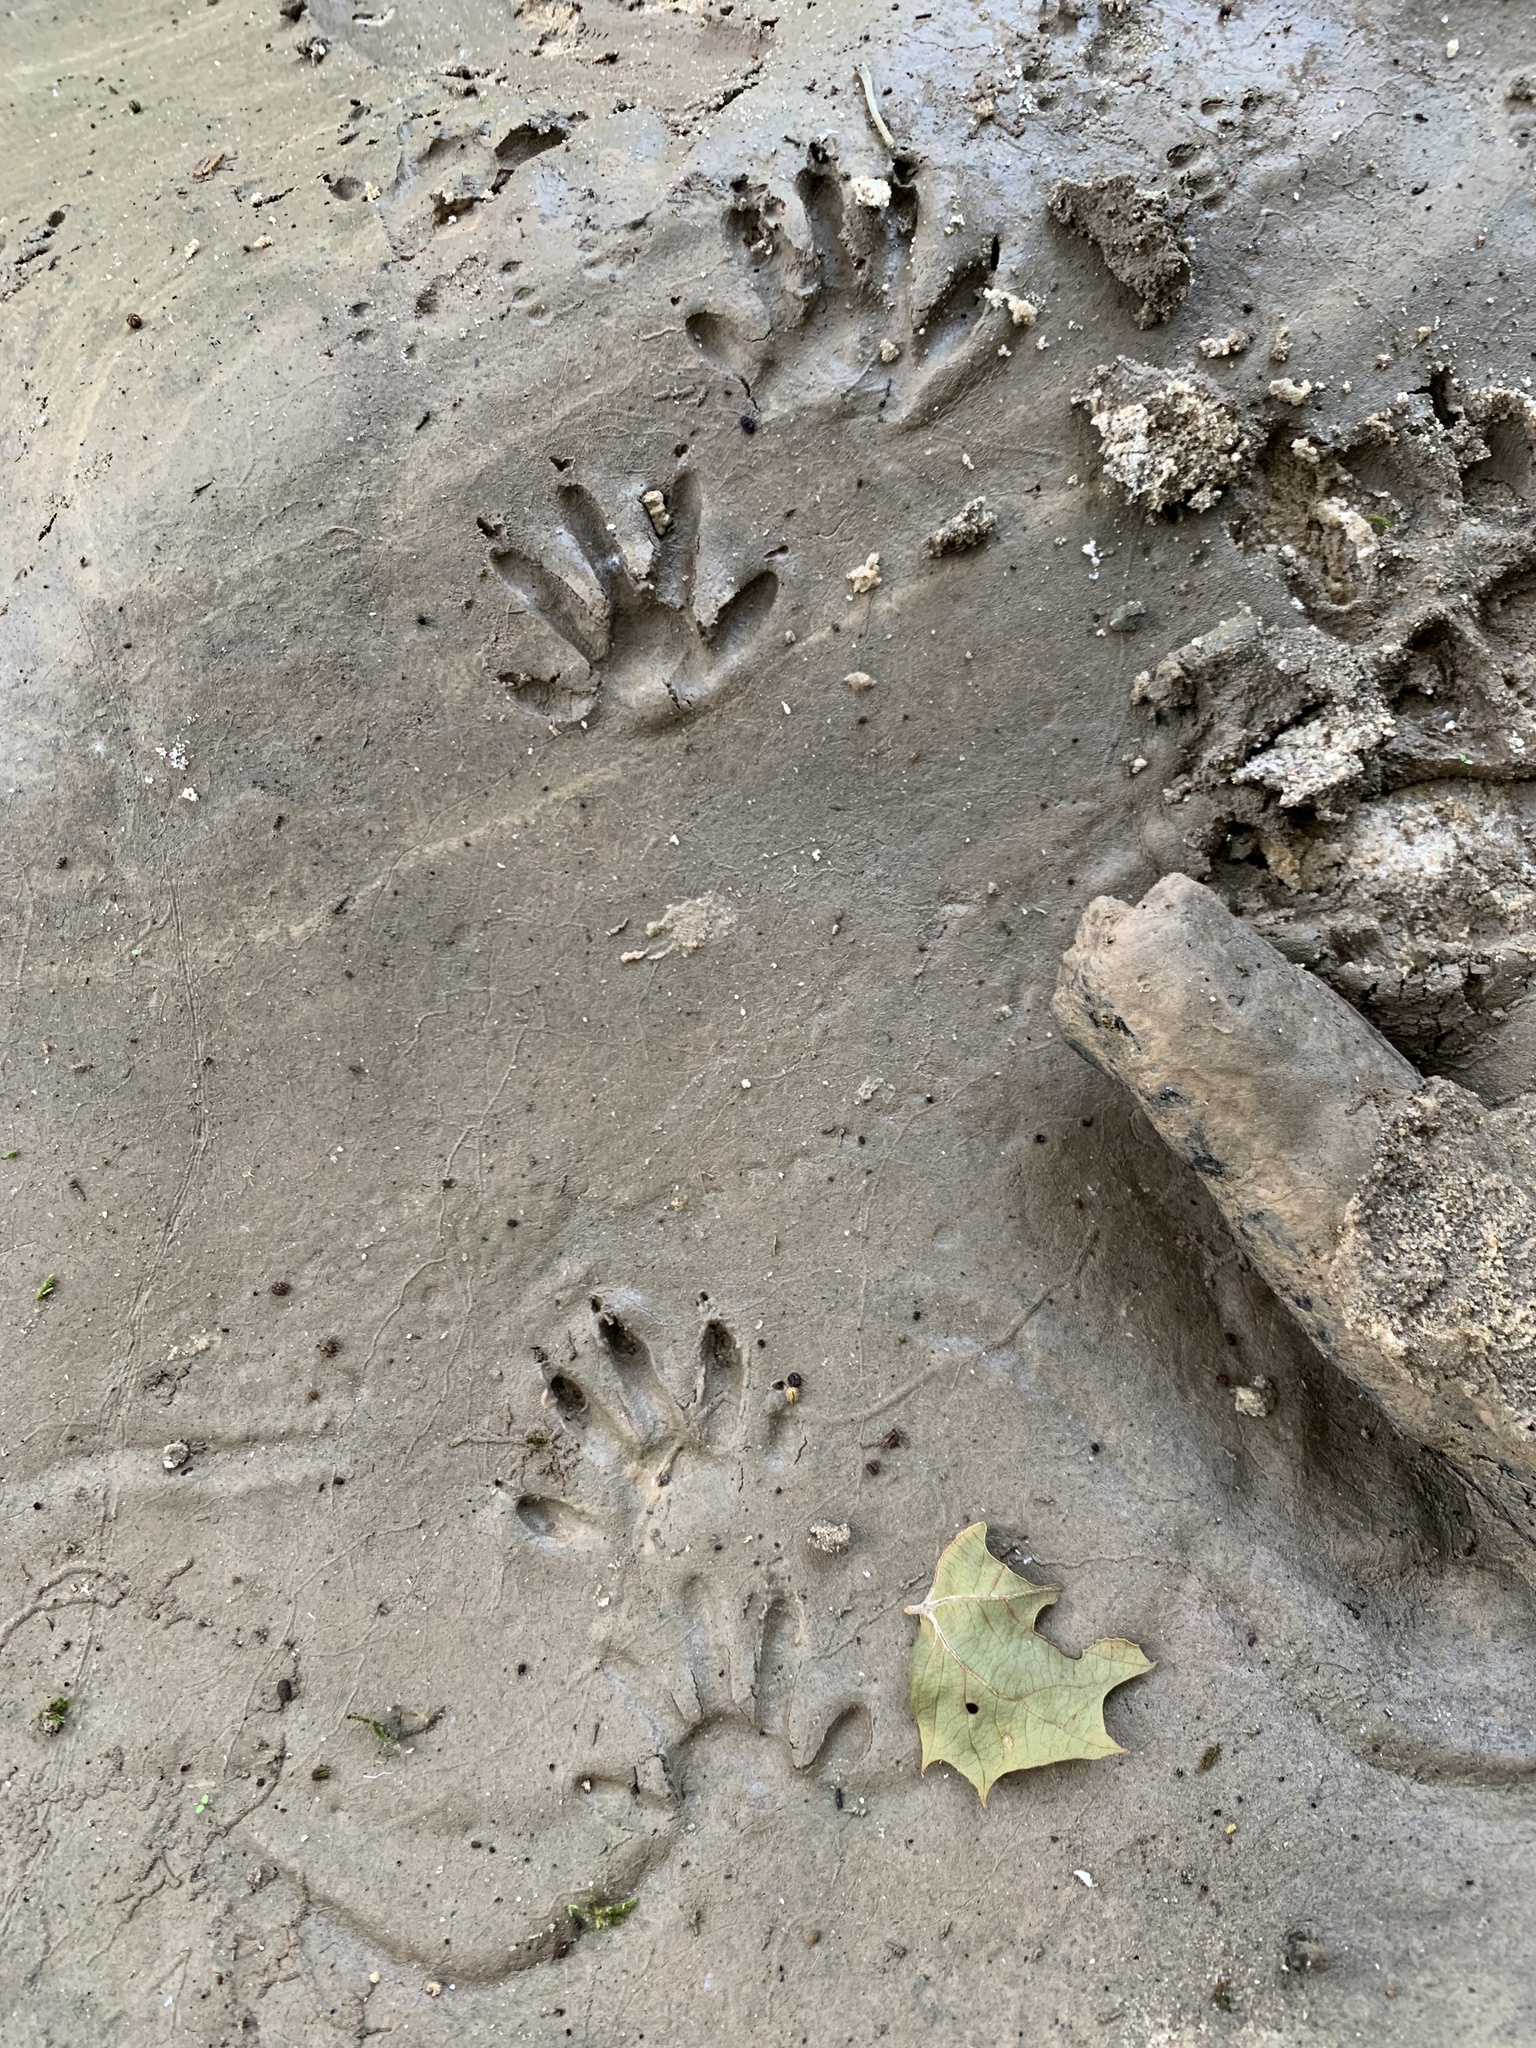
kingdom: Animalia
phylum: Chordata
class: Mammalia
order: Carnivora
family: Procyonidae
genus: Procyon
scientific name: Procyon lotor
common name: Raccoon
